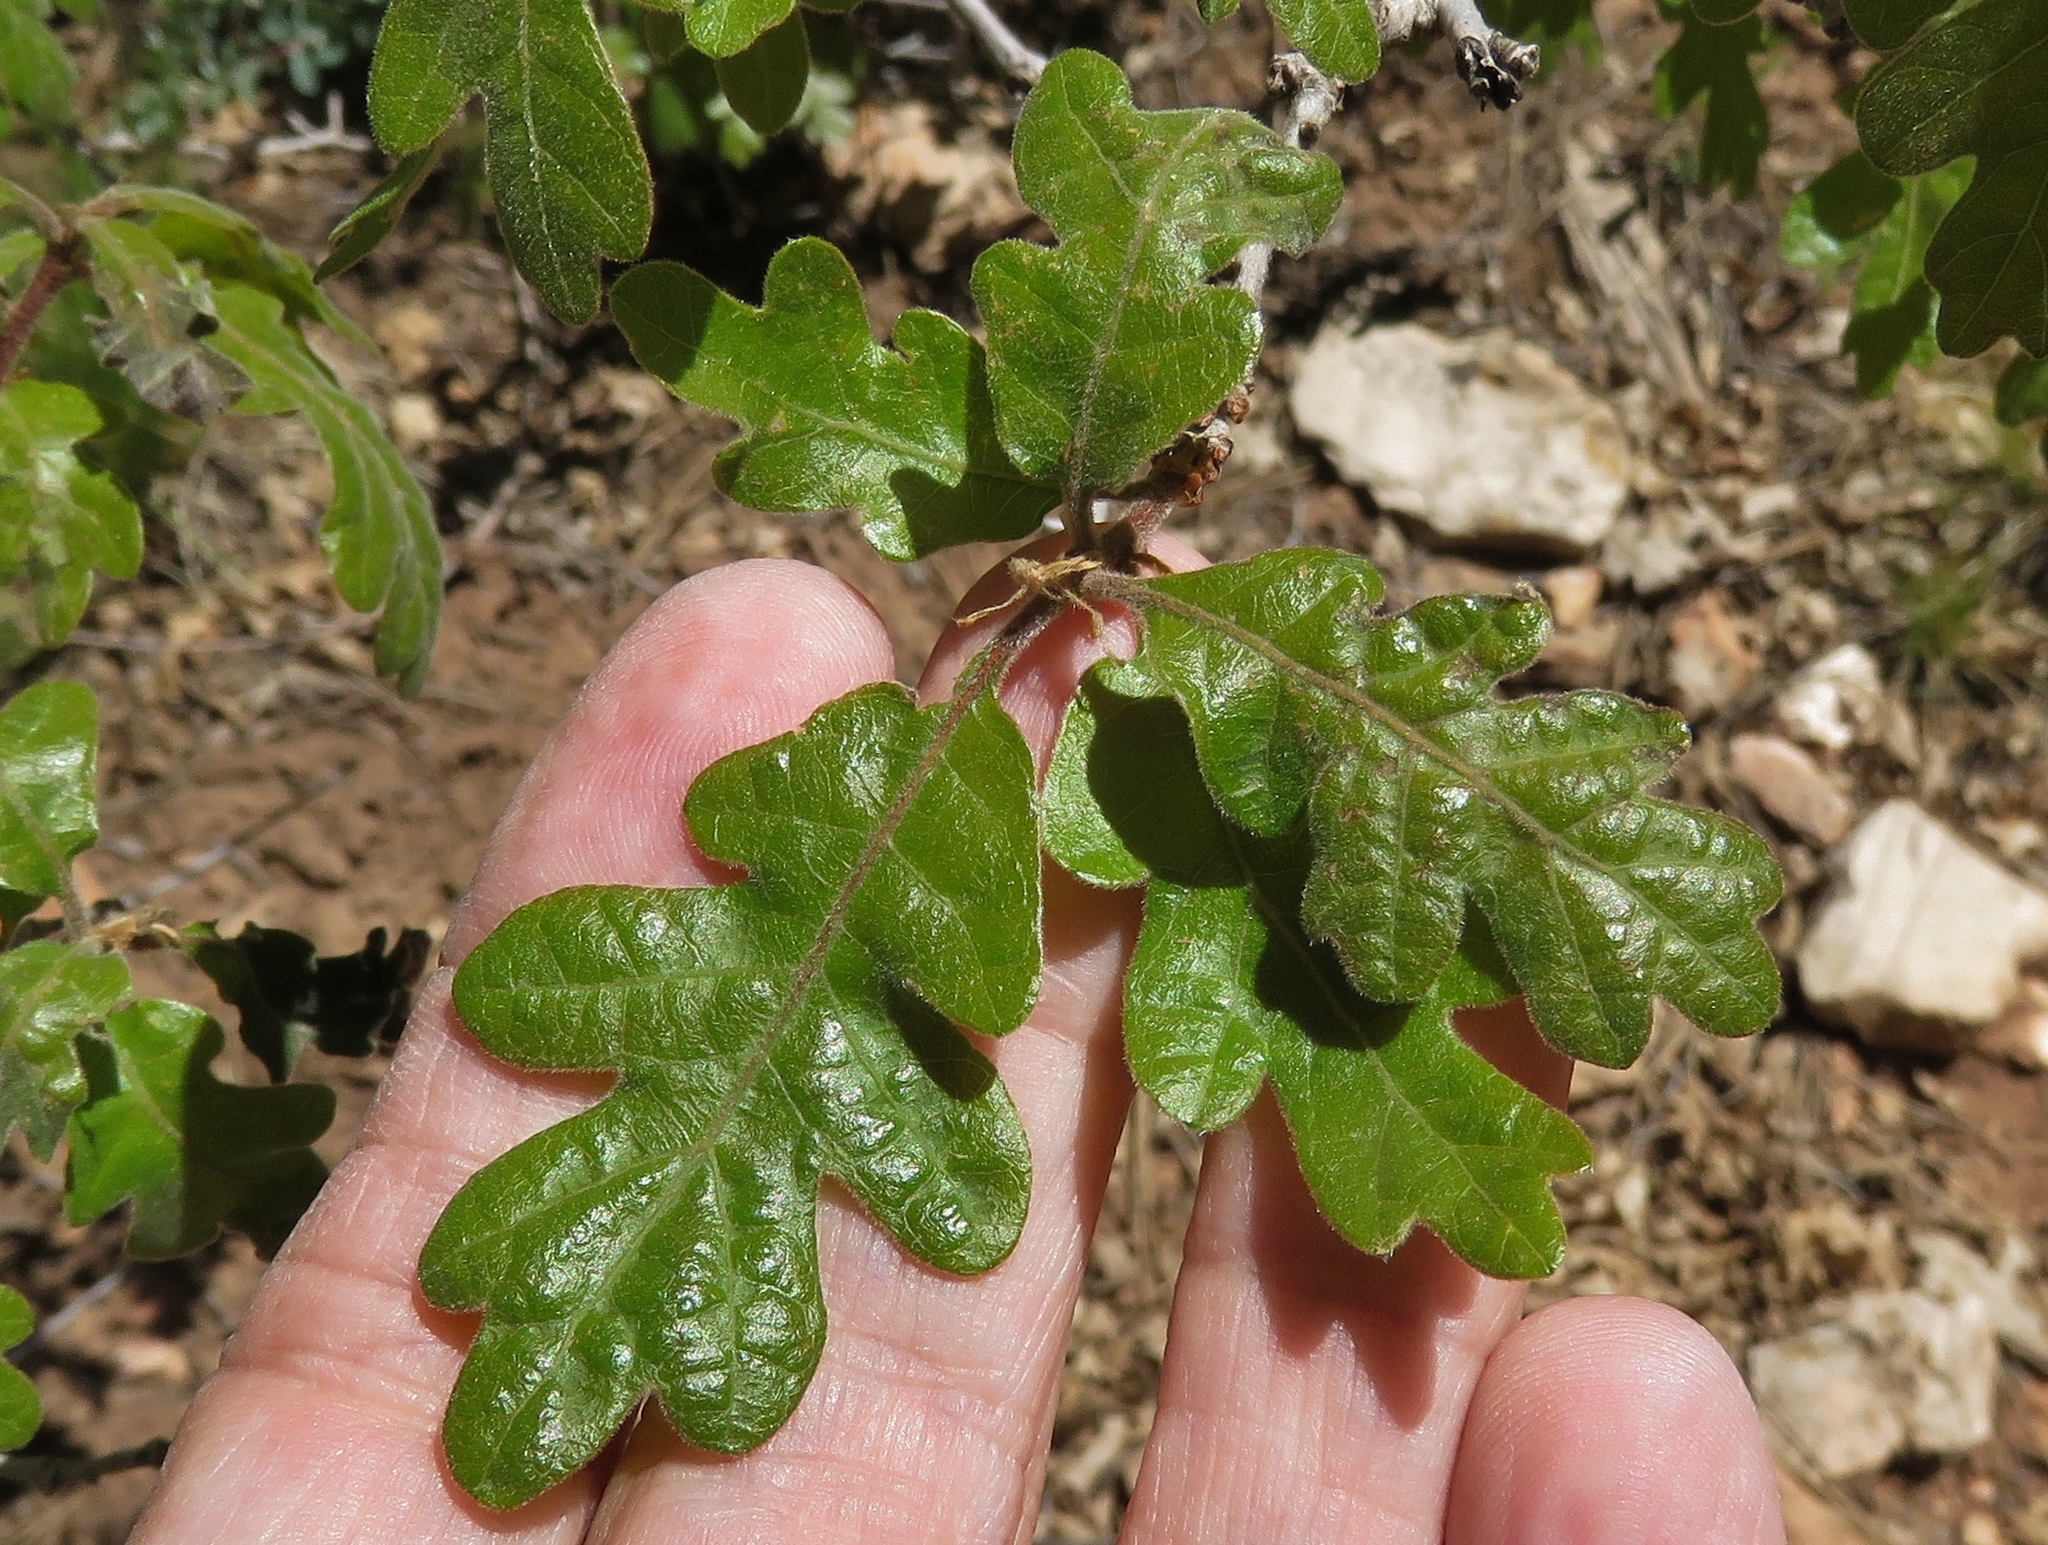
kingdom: Plantae
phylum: Tracheophyta
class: Magnoliopsida
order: Fagales
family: Fagaceae
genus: Quercus
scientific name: Quercus gambelii
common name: Gambel oak
